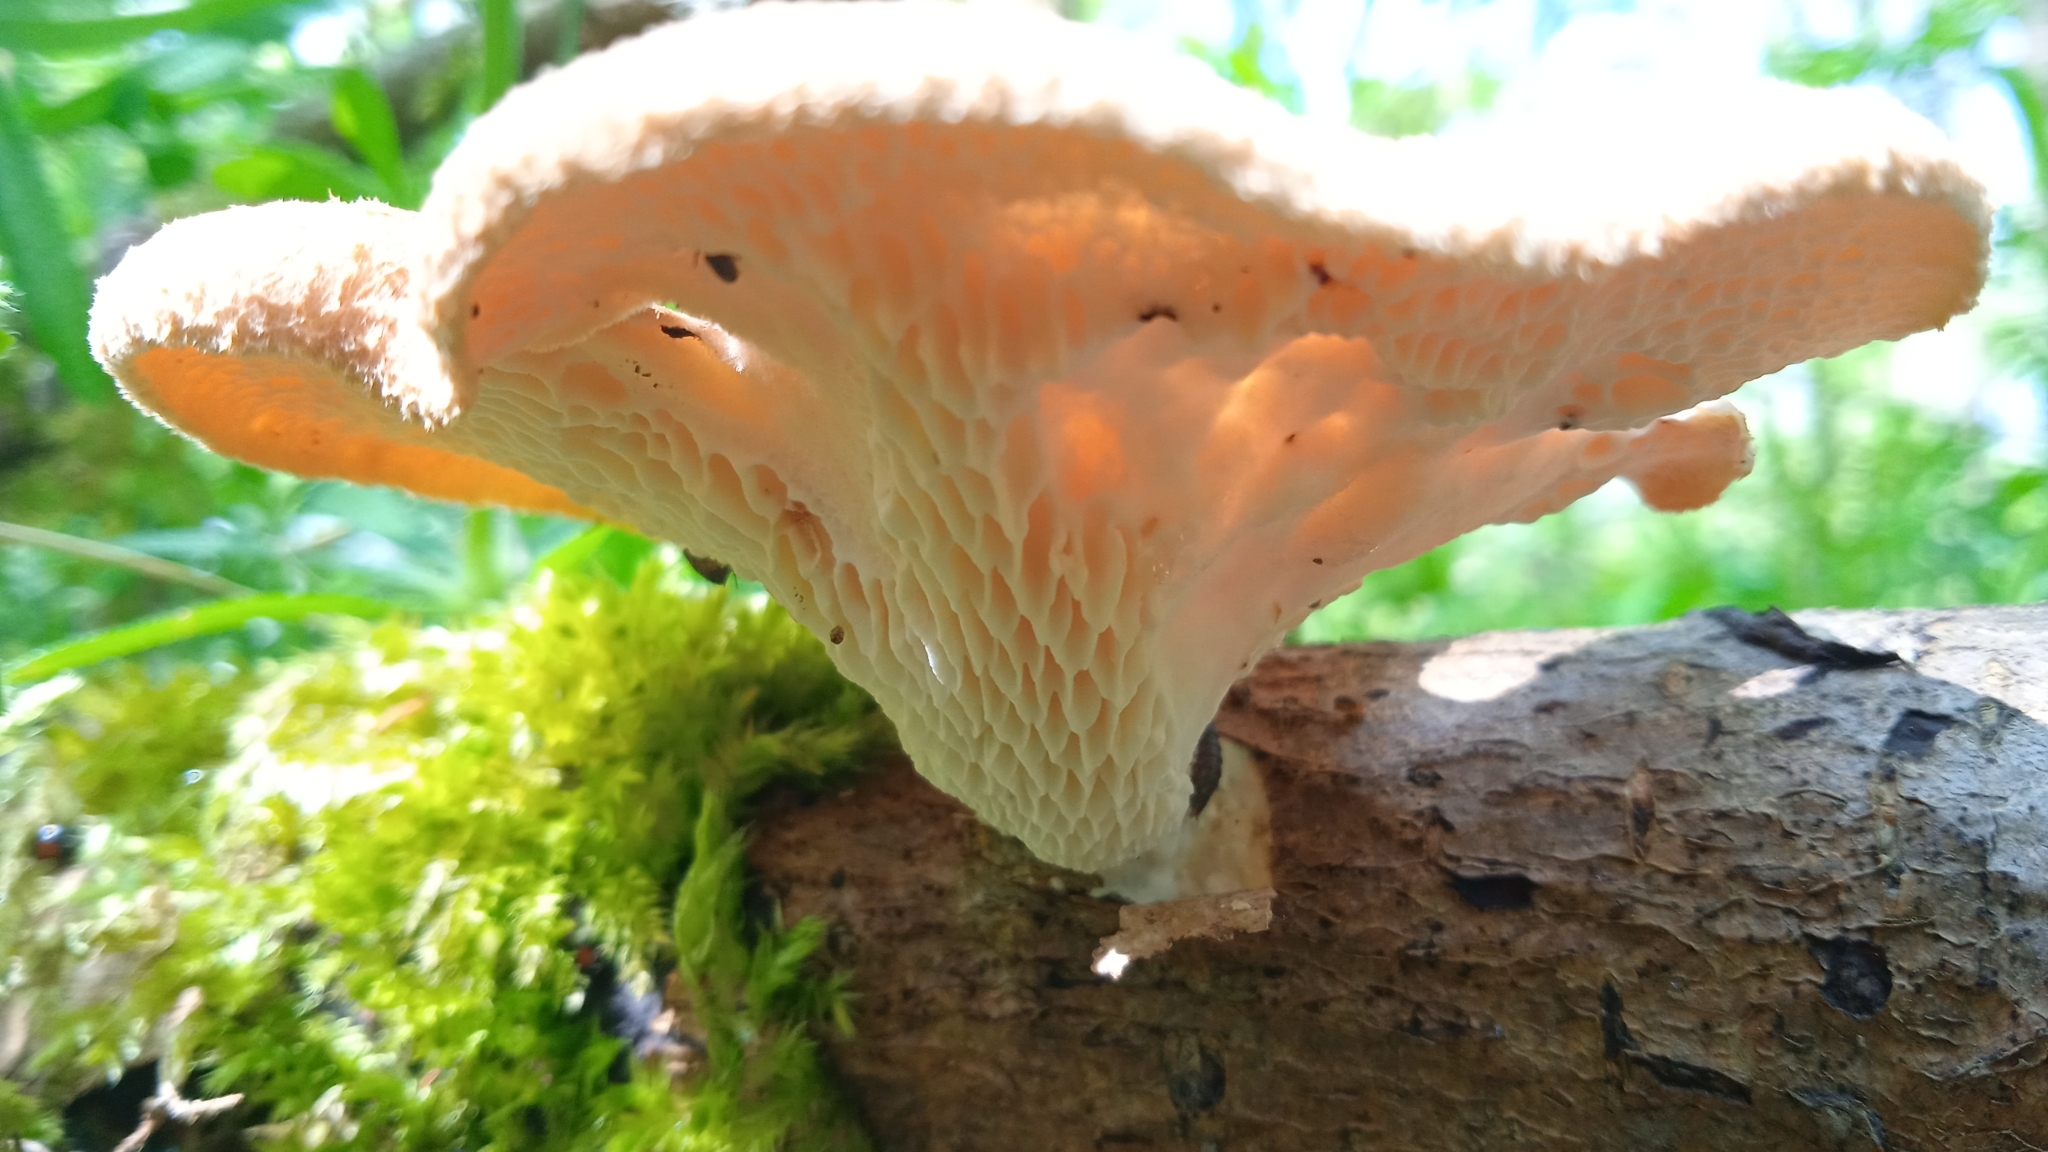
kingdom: Fungi
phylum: Basidiomycota
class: Agaricomycetes
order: Polyporales
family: Polyporaceae
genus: Neofavolus
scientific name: Neofavolus alveolaris
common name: Hexagonal-pored polypore
